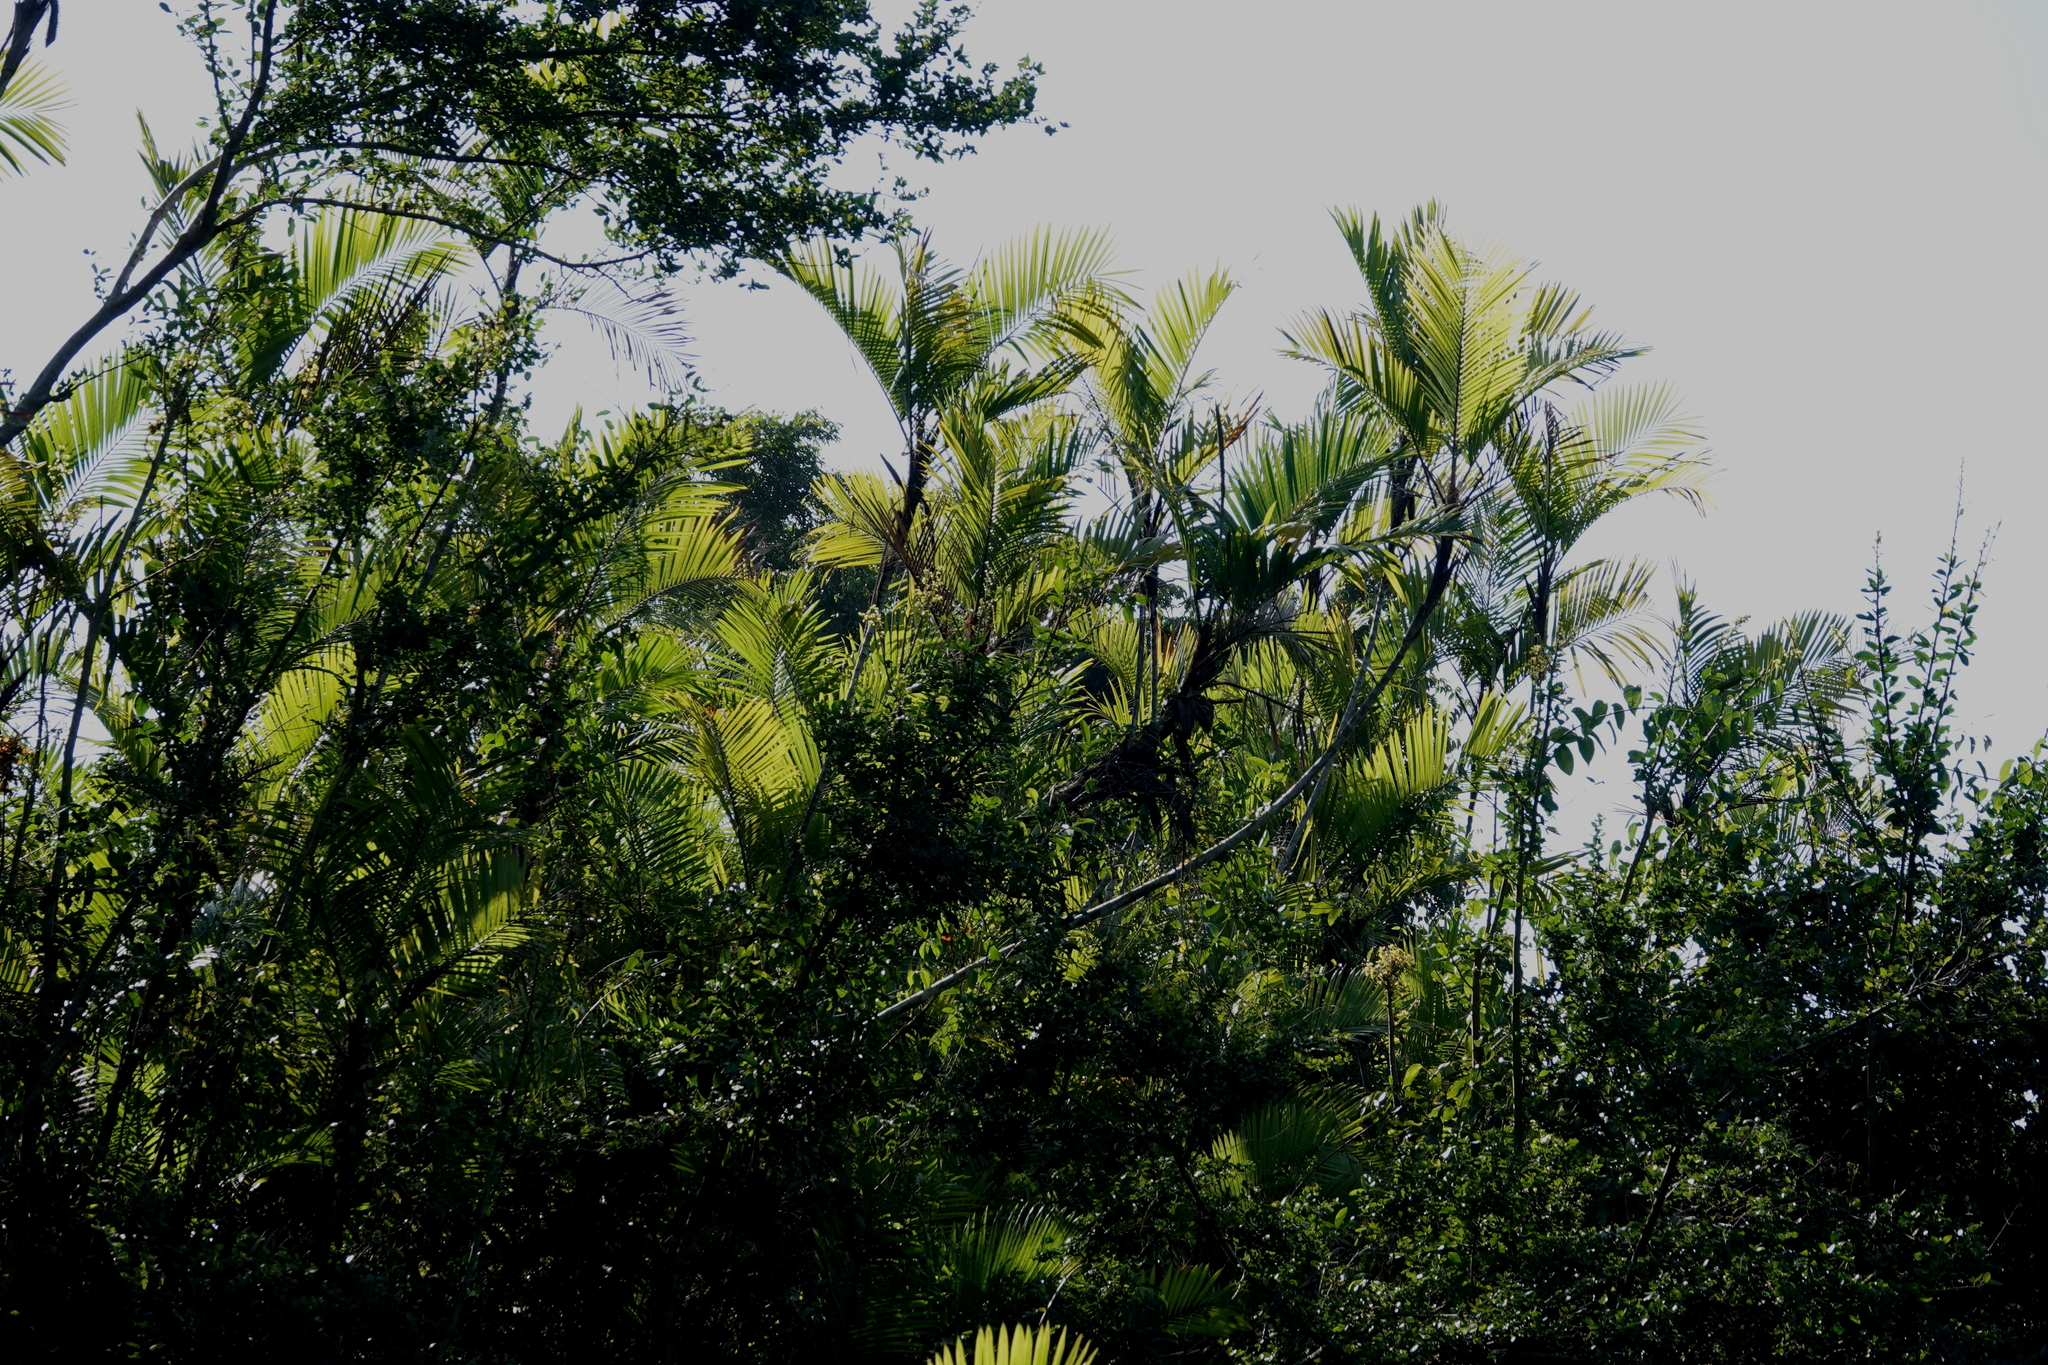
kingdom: Plantae
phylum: Tracheophyta
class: Liliopsida
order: Arecales
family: Arecaceae
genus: Bactris
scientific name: Bactris major
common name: Beach palm
